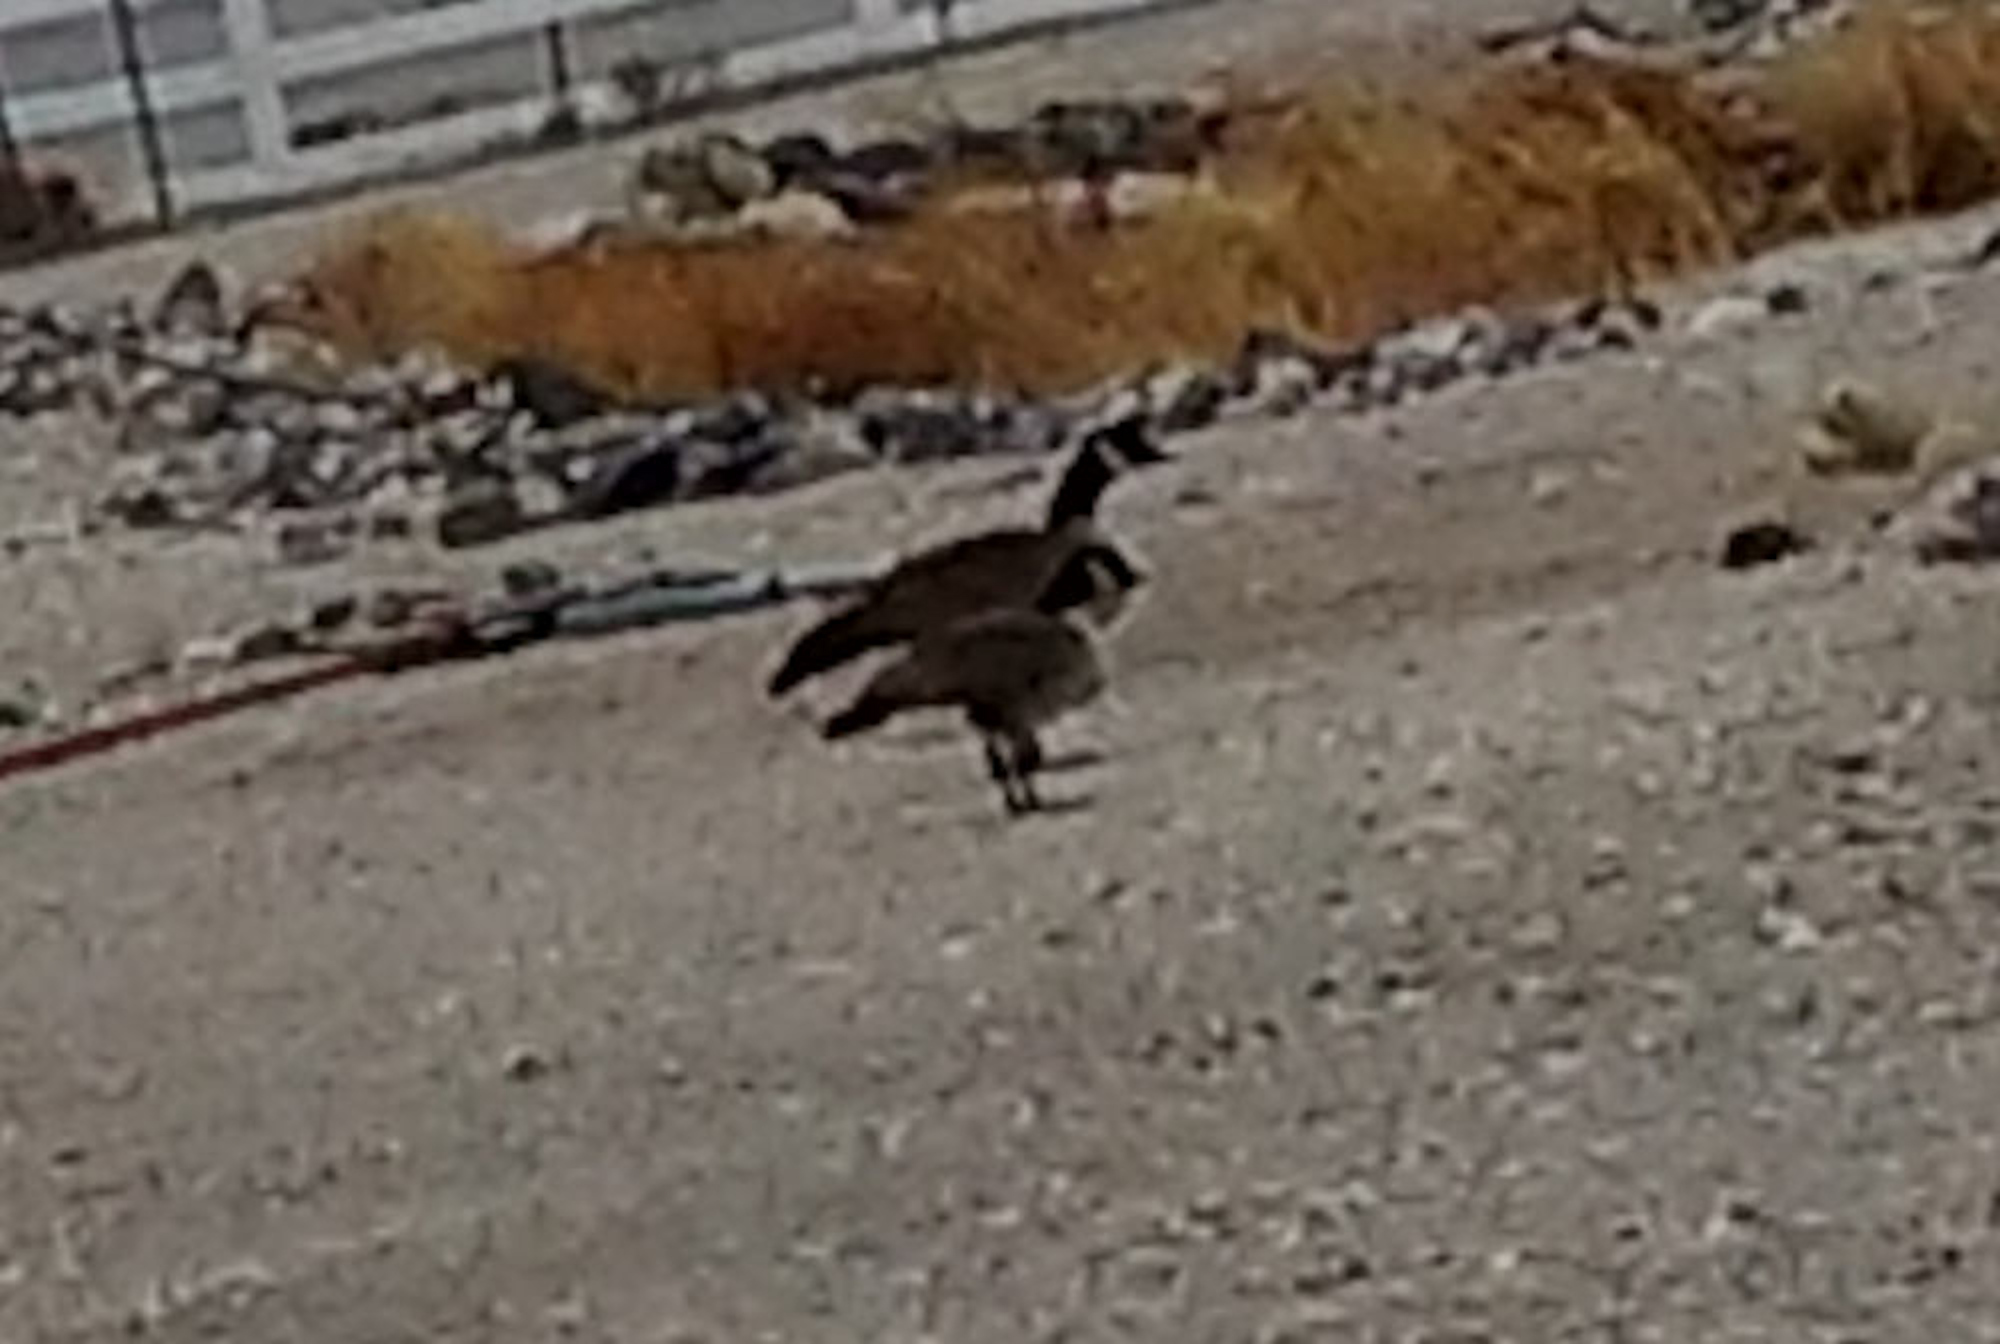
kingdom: Animalia
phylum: Chordata
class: Aves
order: Anseriformes
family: Anatidae
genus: Branta
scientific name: Branta hutchinsii
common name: Cackling goose
